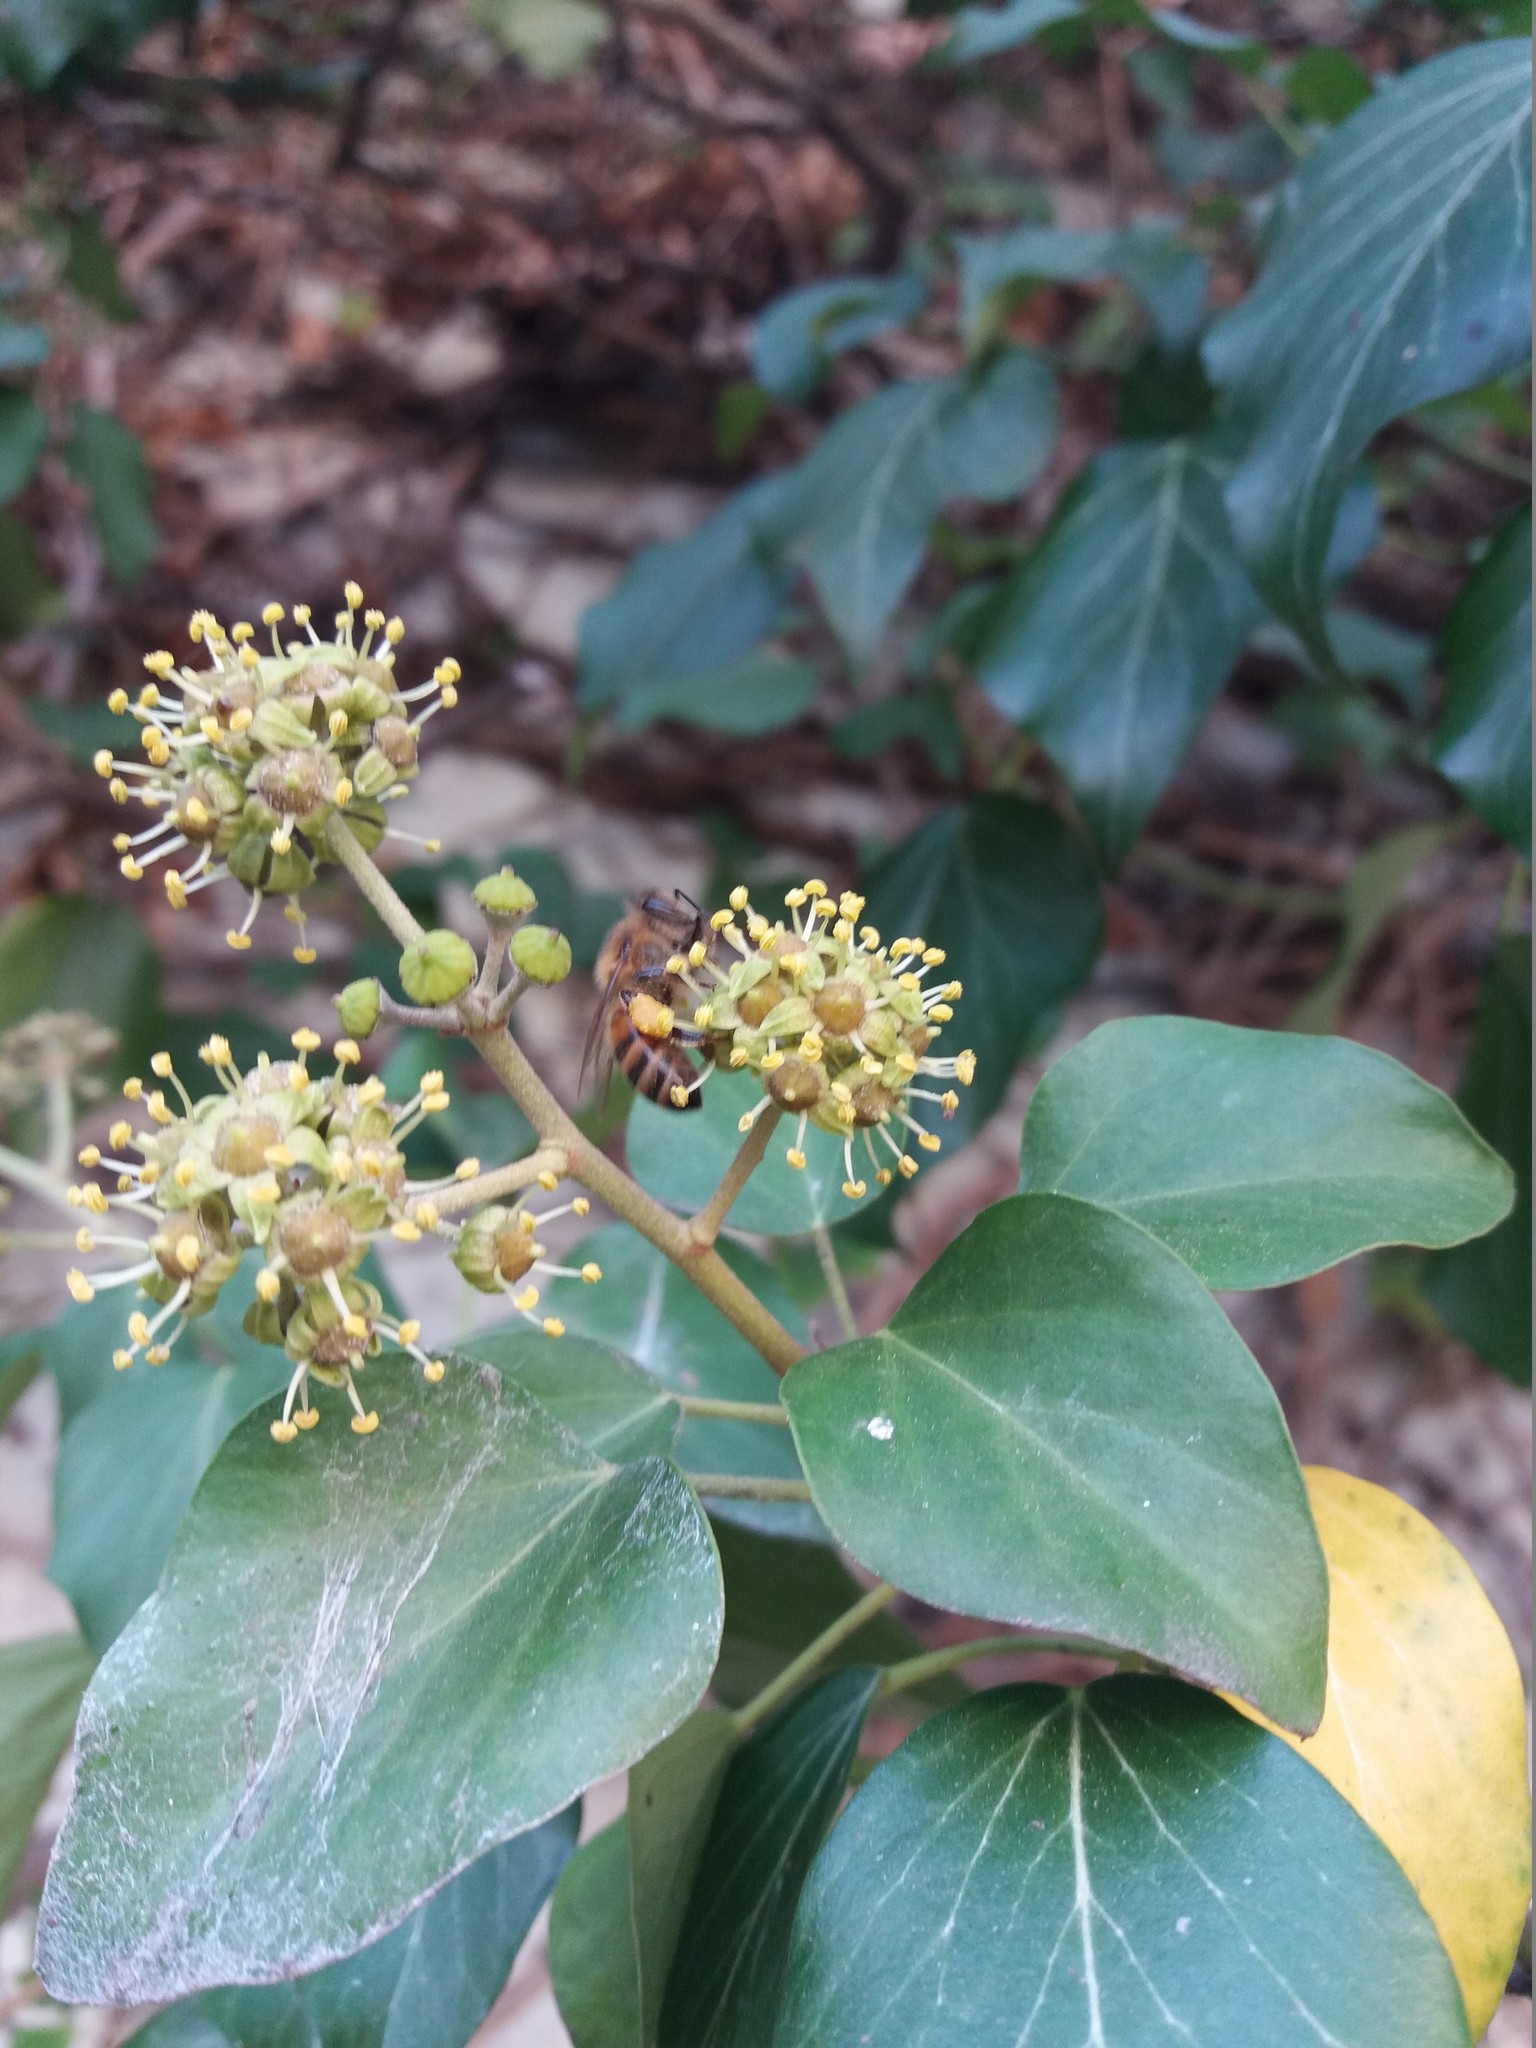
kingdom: Animalia
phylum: Arthropoda
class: Insecta
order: Hymenoptera
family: Apidae
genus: Apis
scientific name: Apis mellifera
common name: Honey bee
